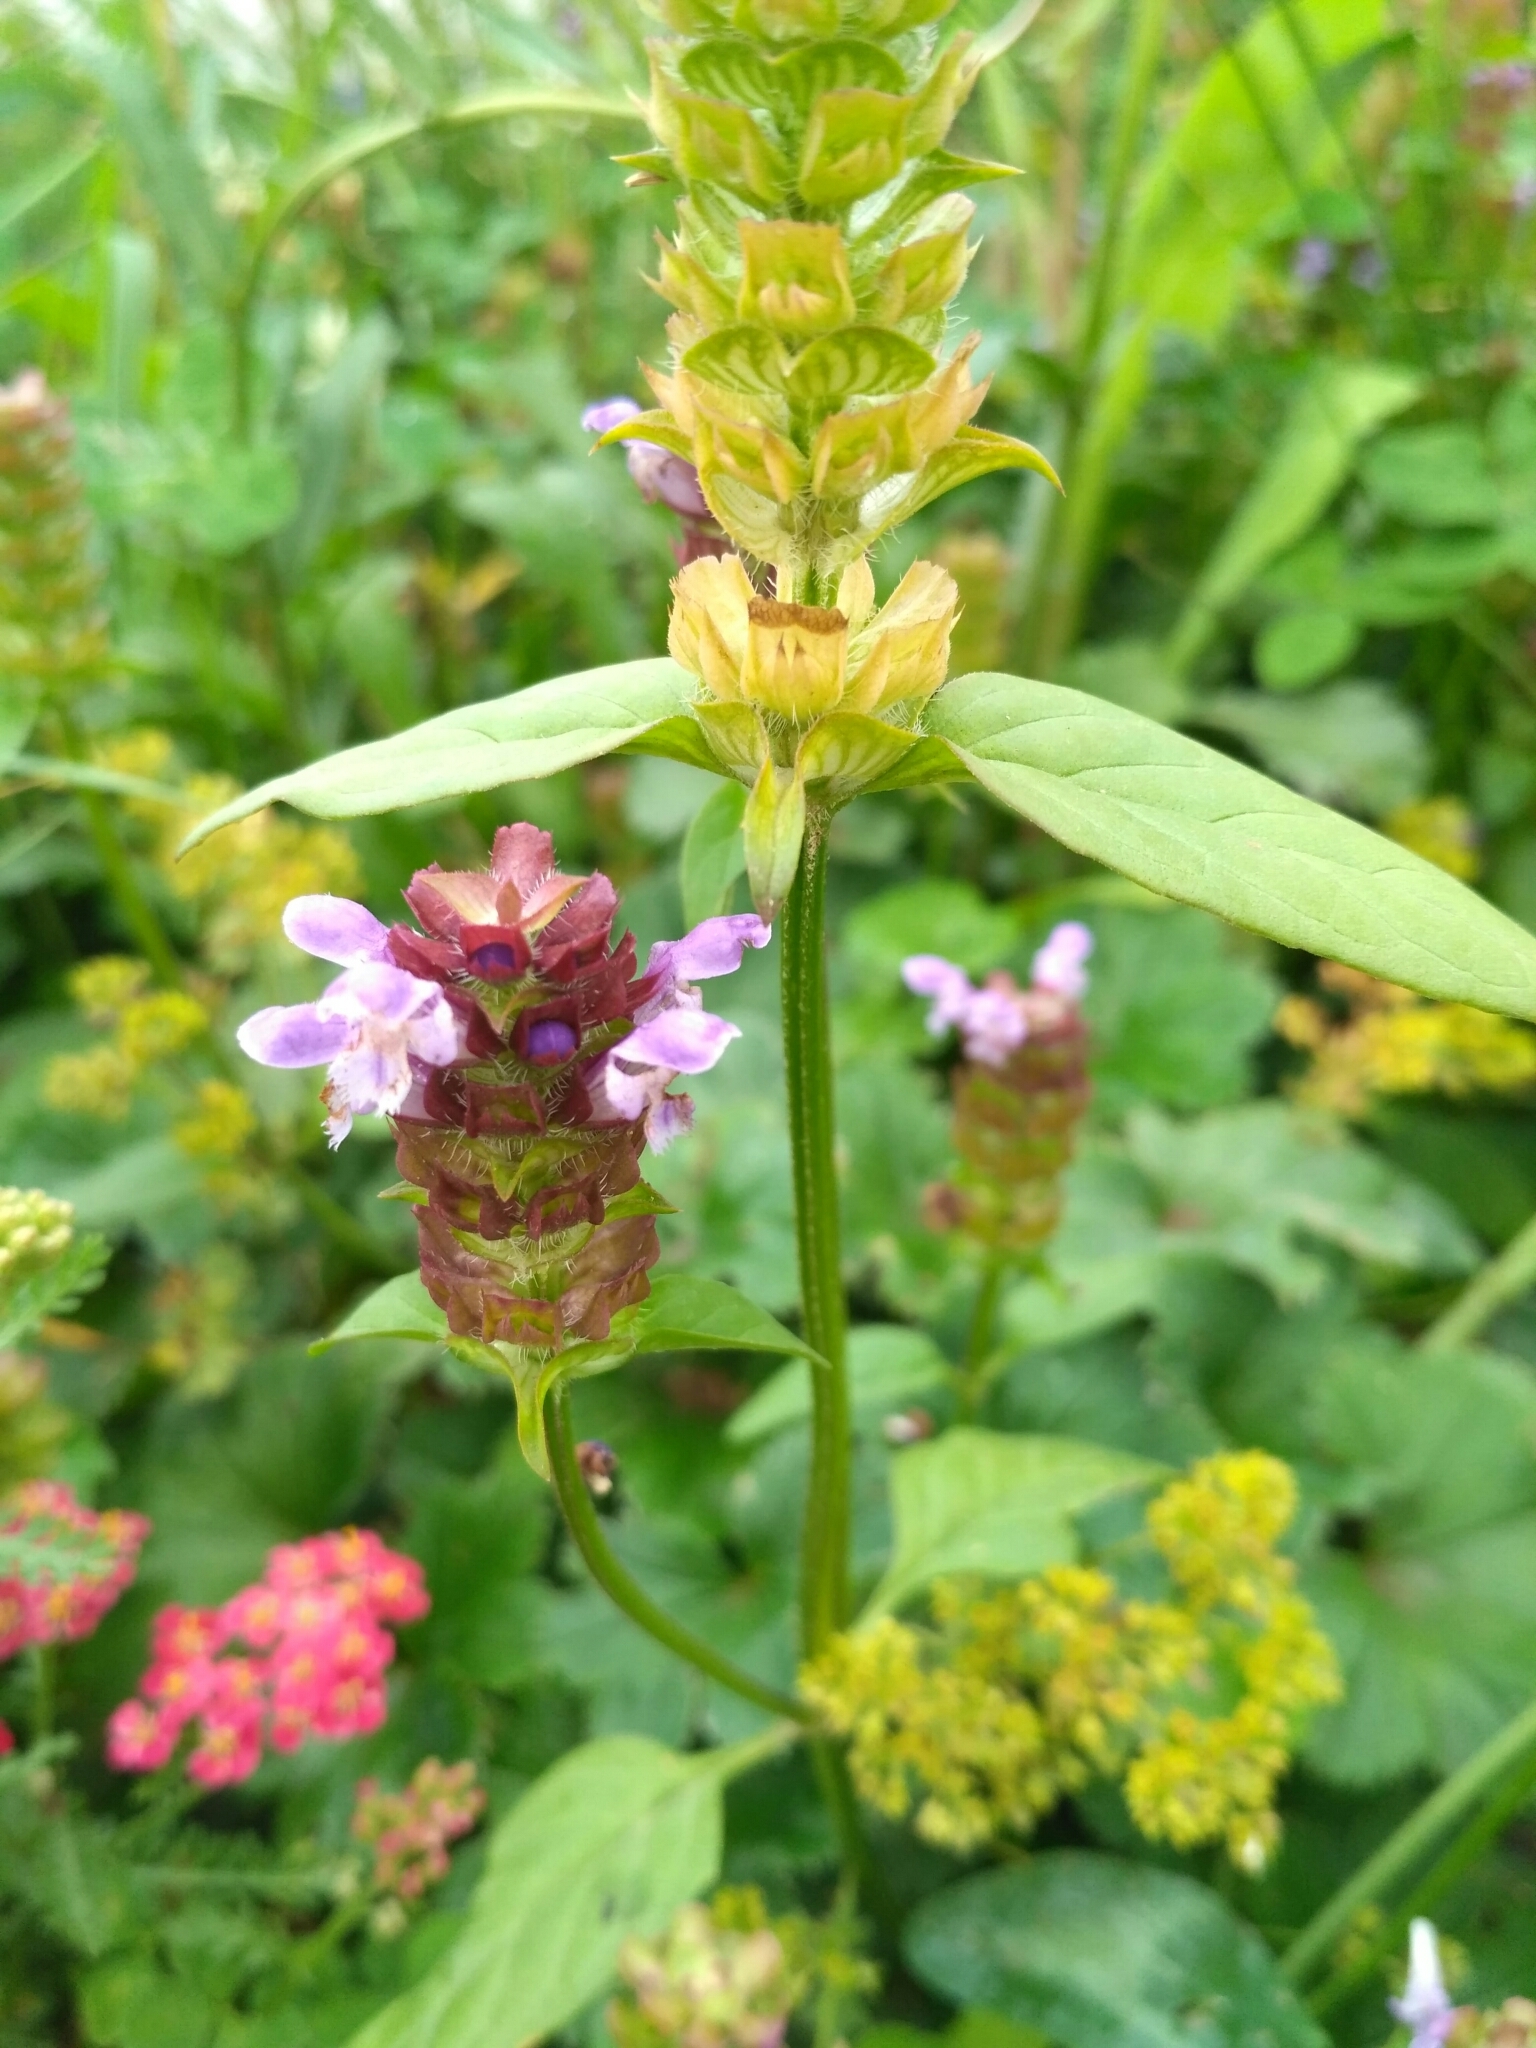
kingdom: Plantae
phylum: Tracheophyta
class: Magnoliopsida
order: Lamiales
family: Lamiaceae
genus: Prunella
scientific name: Prunella vulgaris
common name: Heal-all
